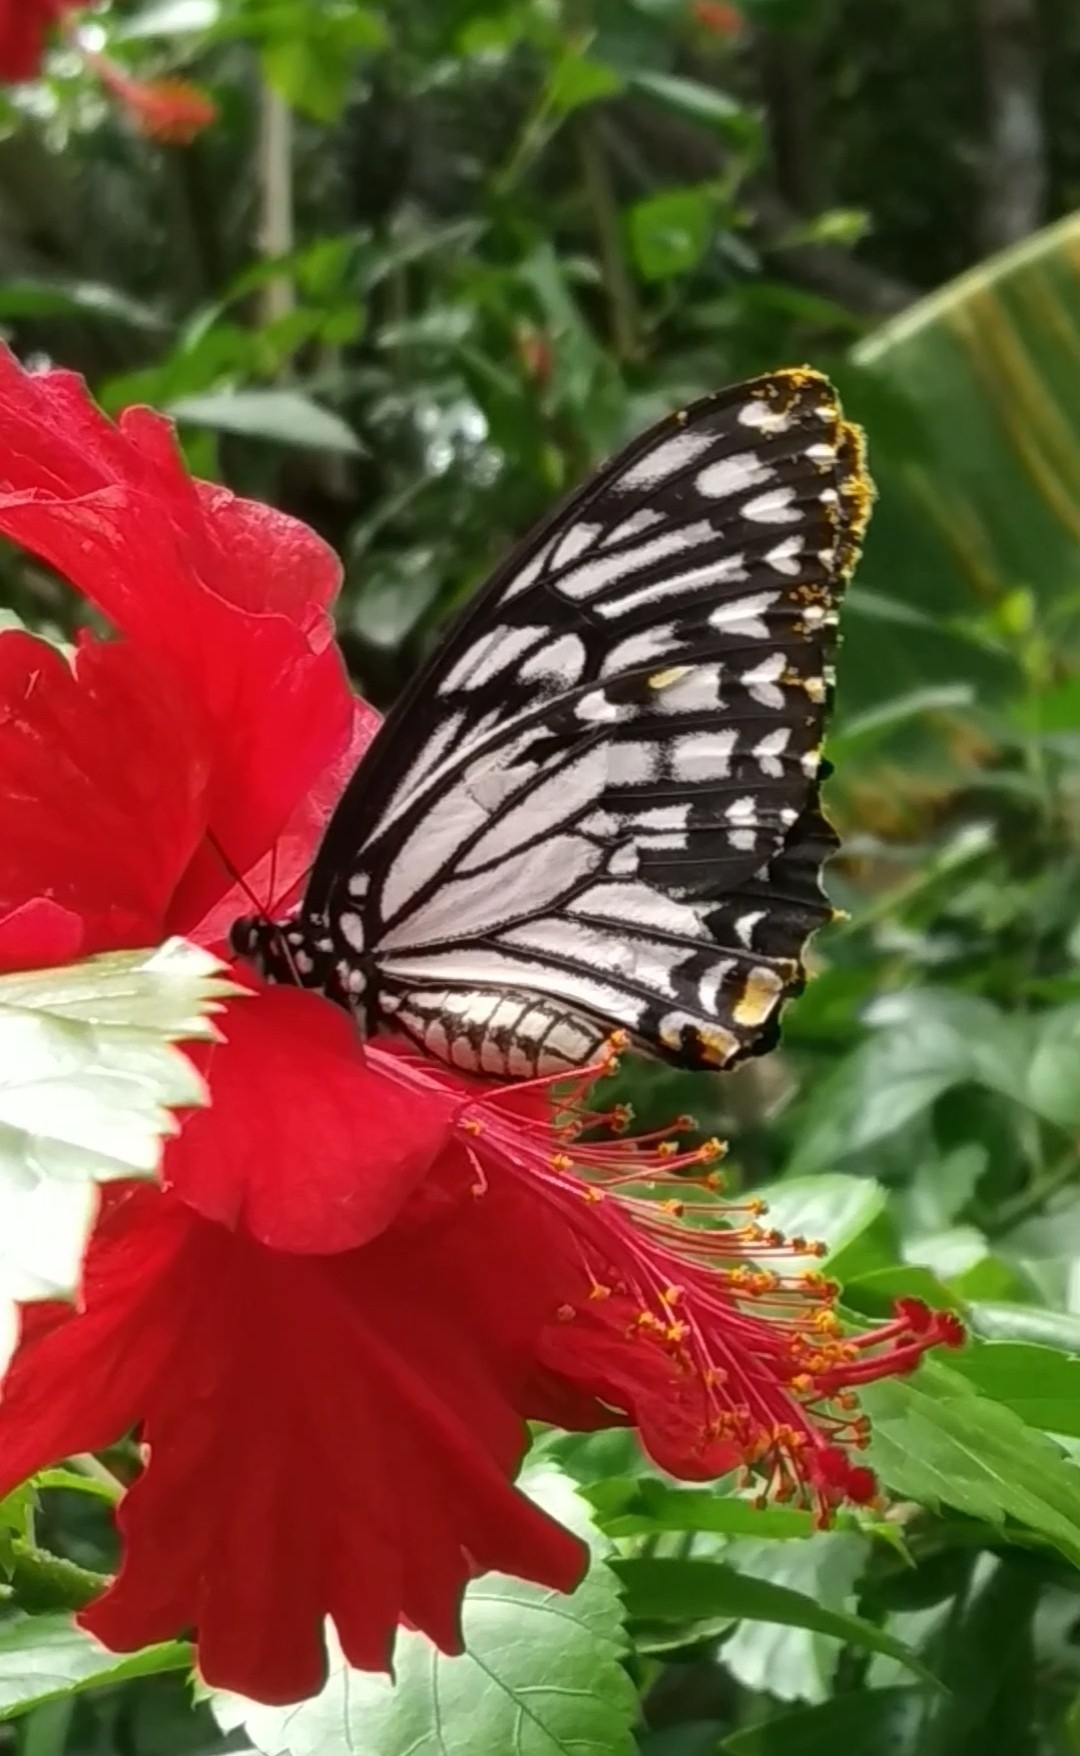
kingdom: Animalia
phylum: Arthropoda
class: Insecta
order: Lepidoptera
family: Papilionidae
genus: Chilasa
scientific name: Chilasa clytia
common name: Common mime
